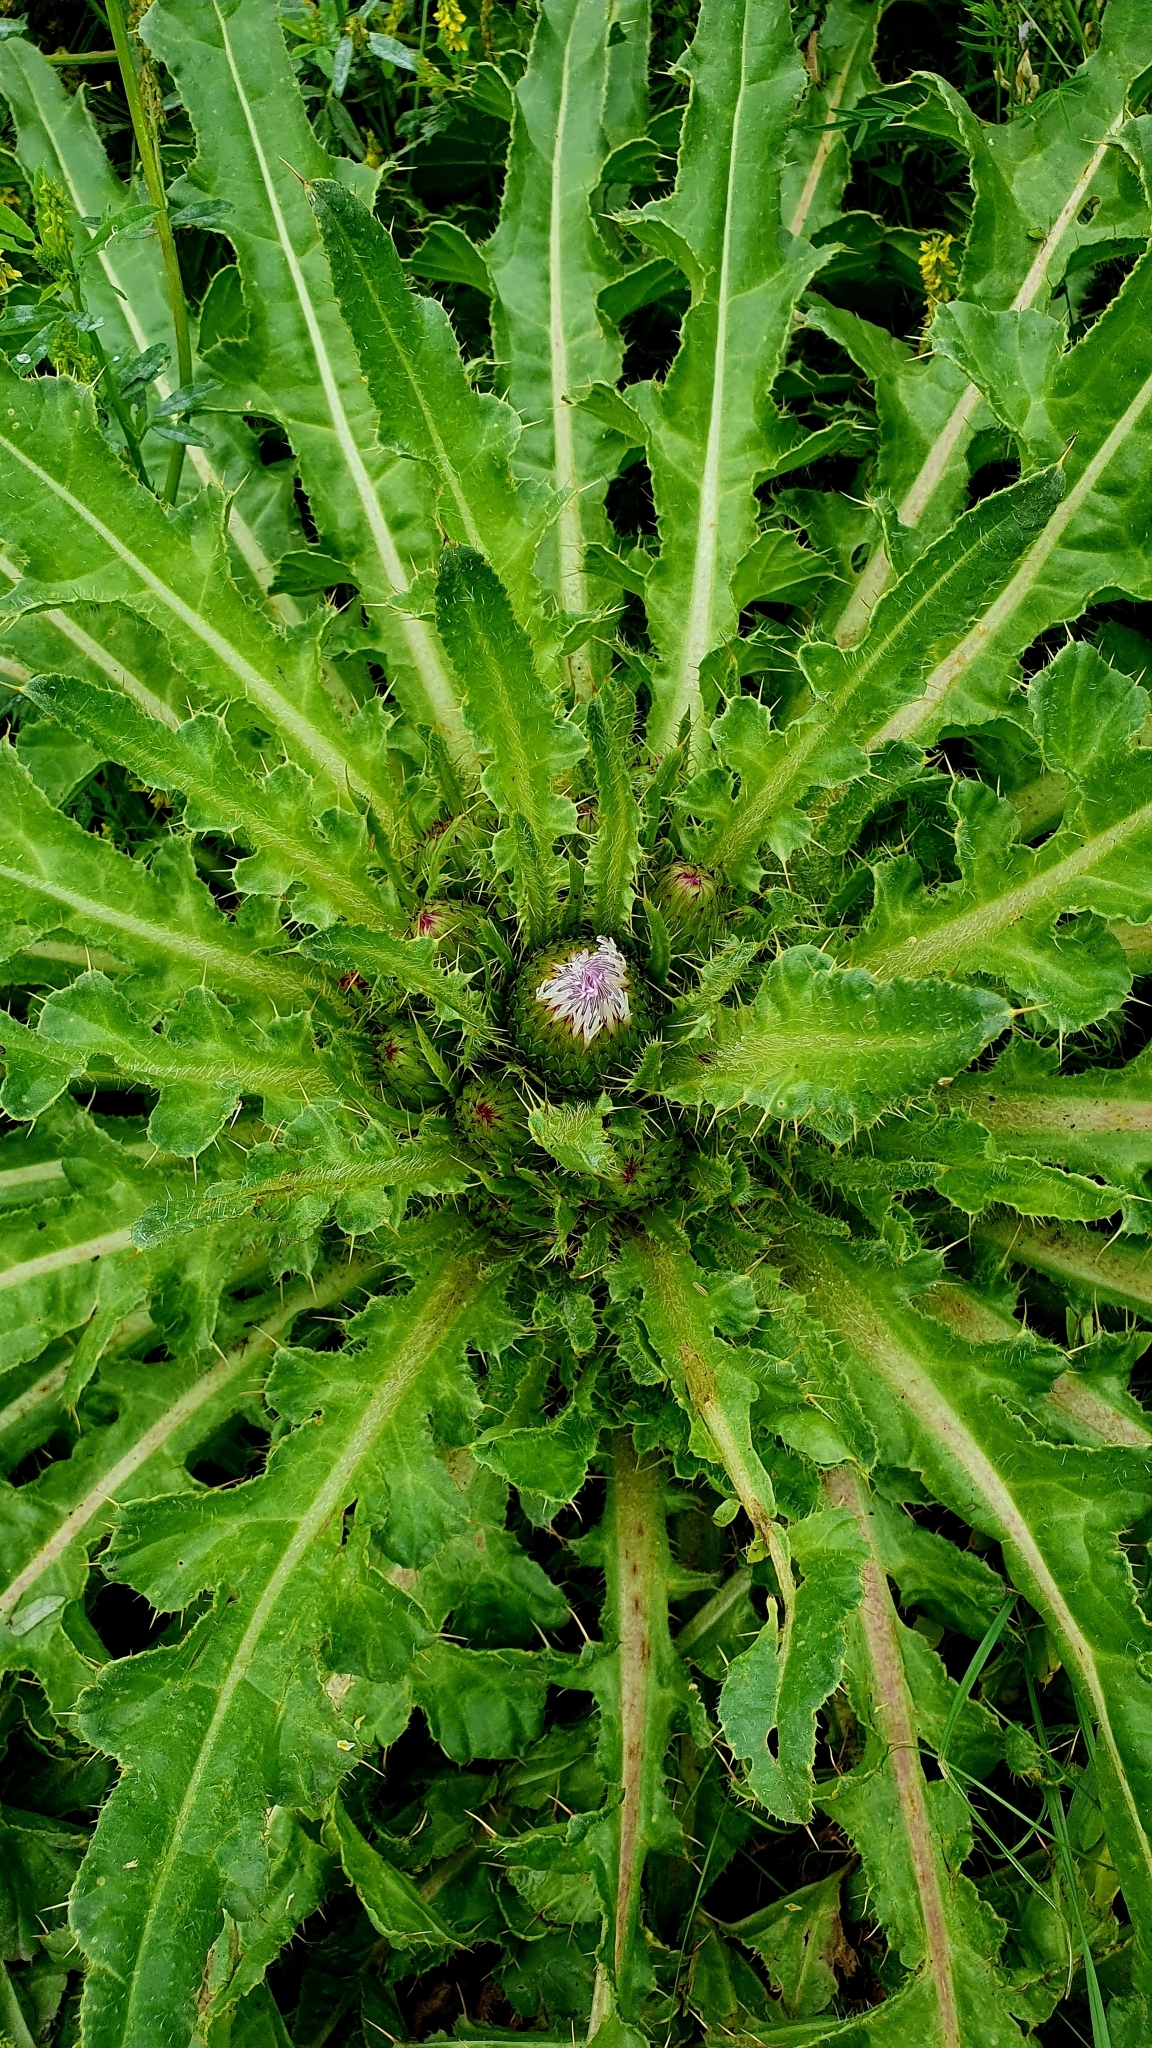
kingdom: Plantae
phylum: Tracheophyta
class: Magnoliopsida
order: Asterales
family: Asteraceae
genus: Cirsium
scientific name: Cirsium esculentum
